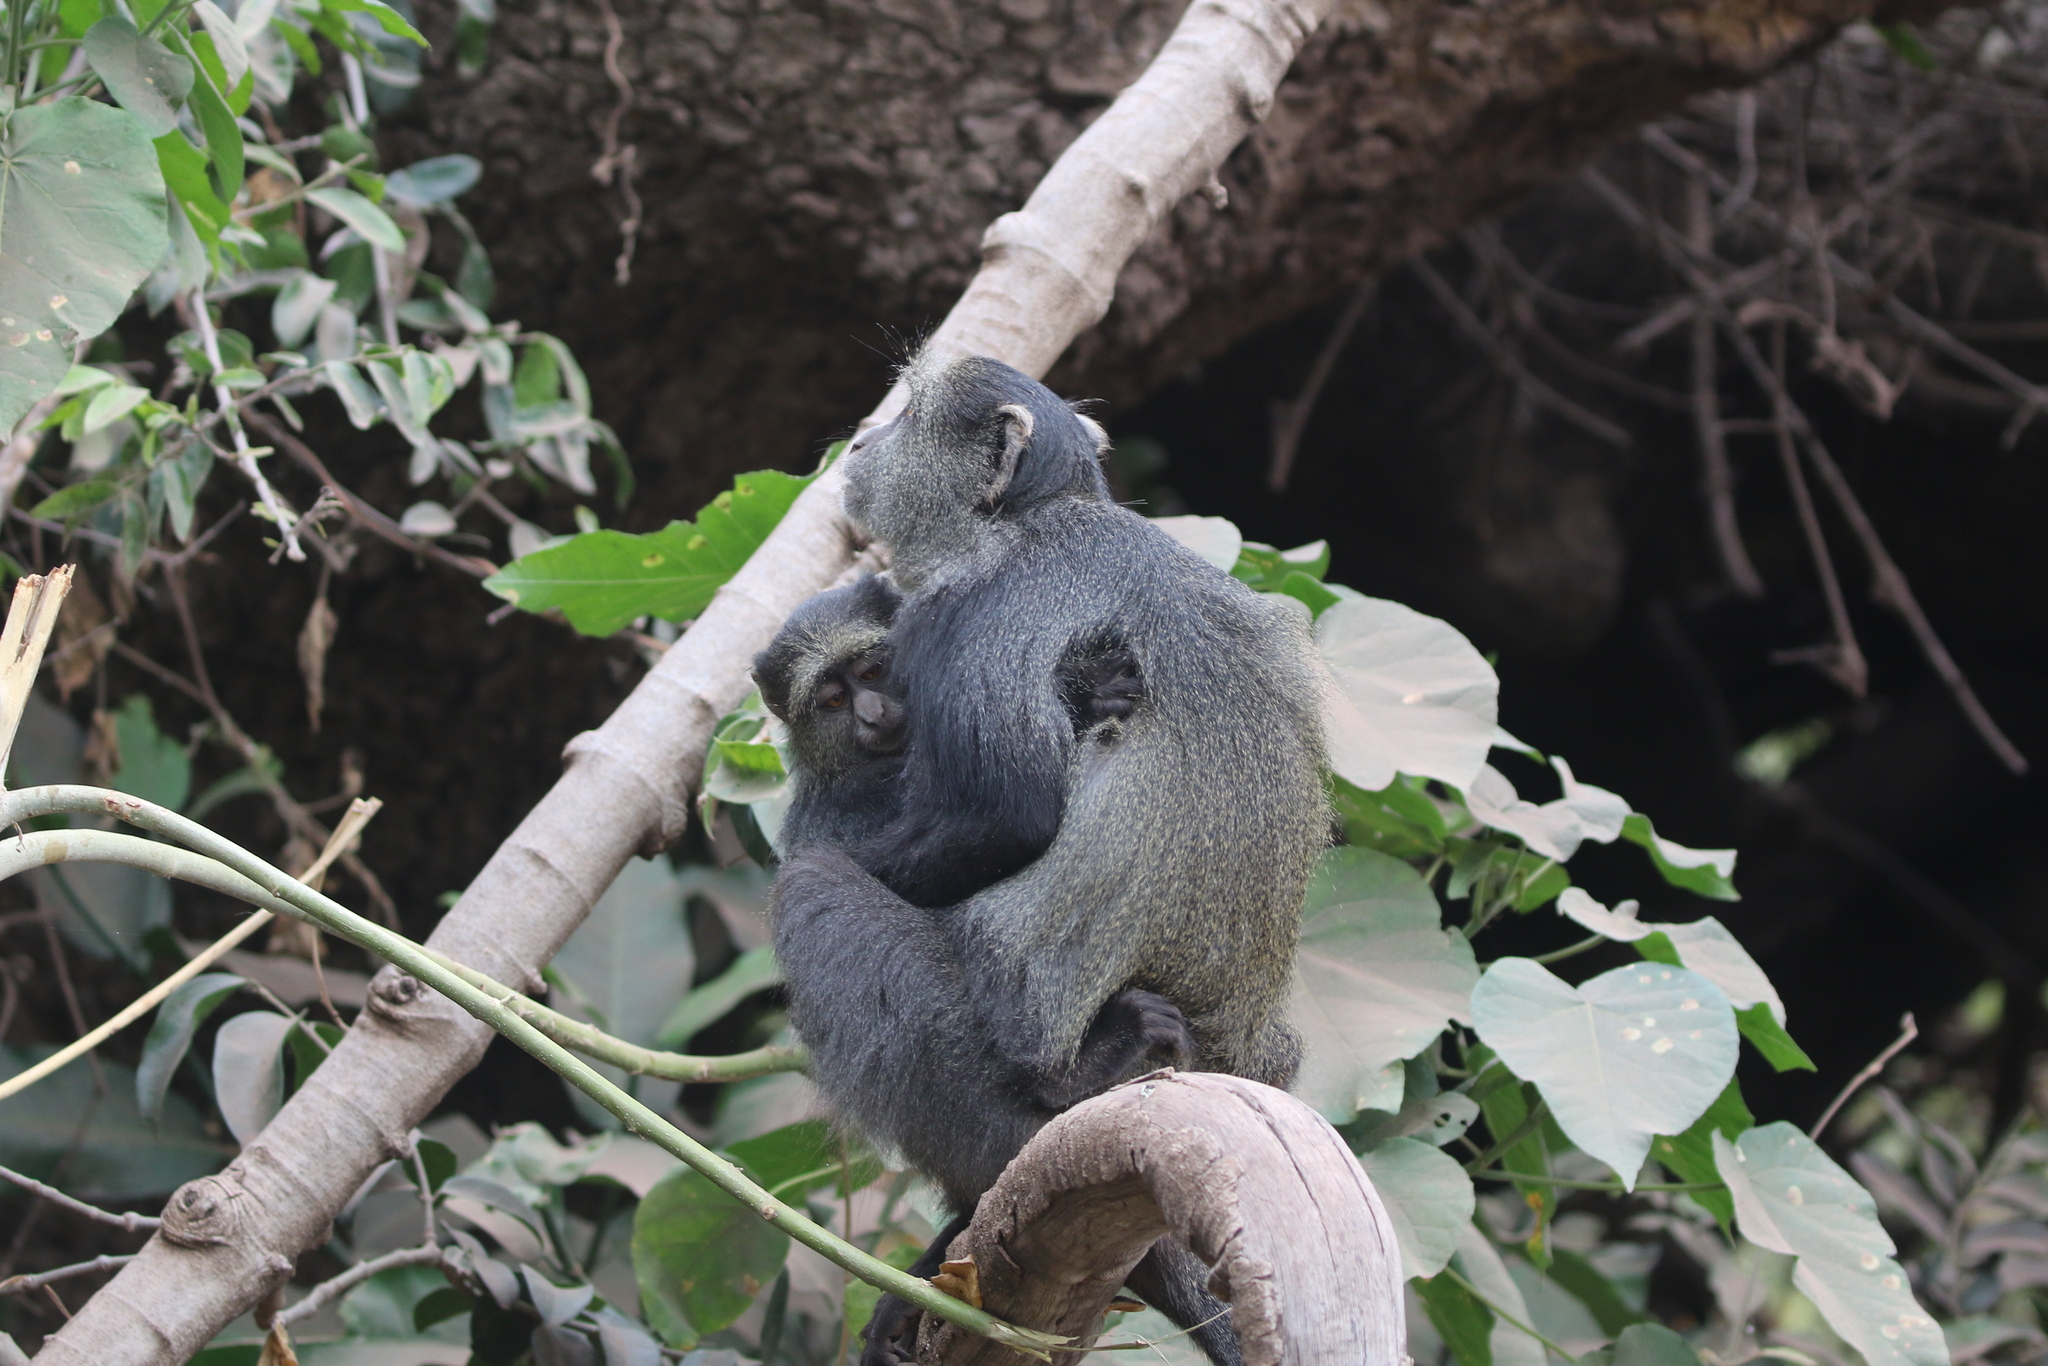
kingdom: Animalia
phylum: Chordata
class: Mammalia
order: Primates
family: Cercopithecidae
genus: Cercopithecus
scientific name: Cercopithecus mitis
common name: Blue monkey
